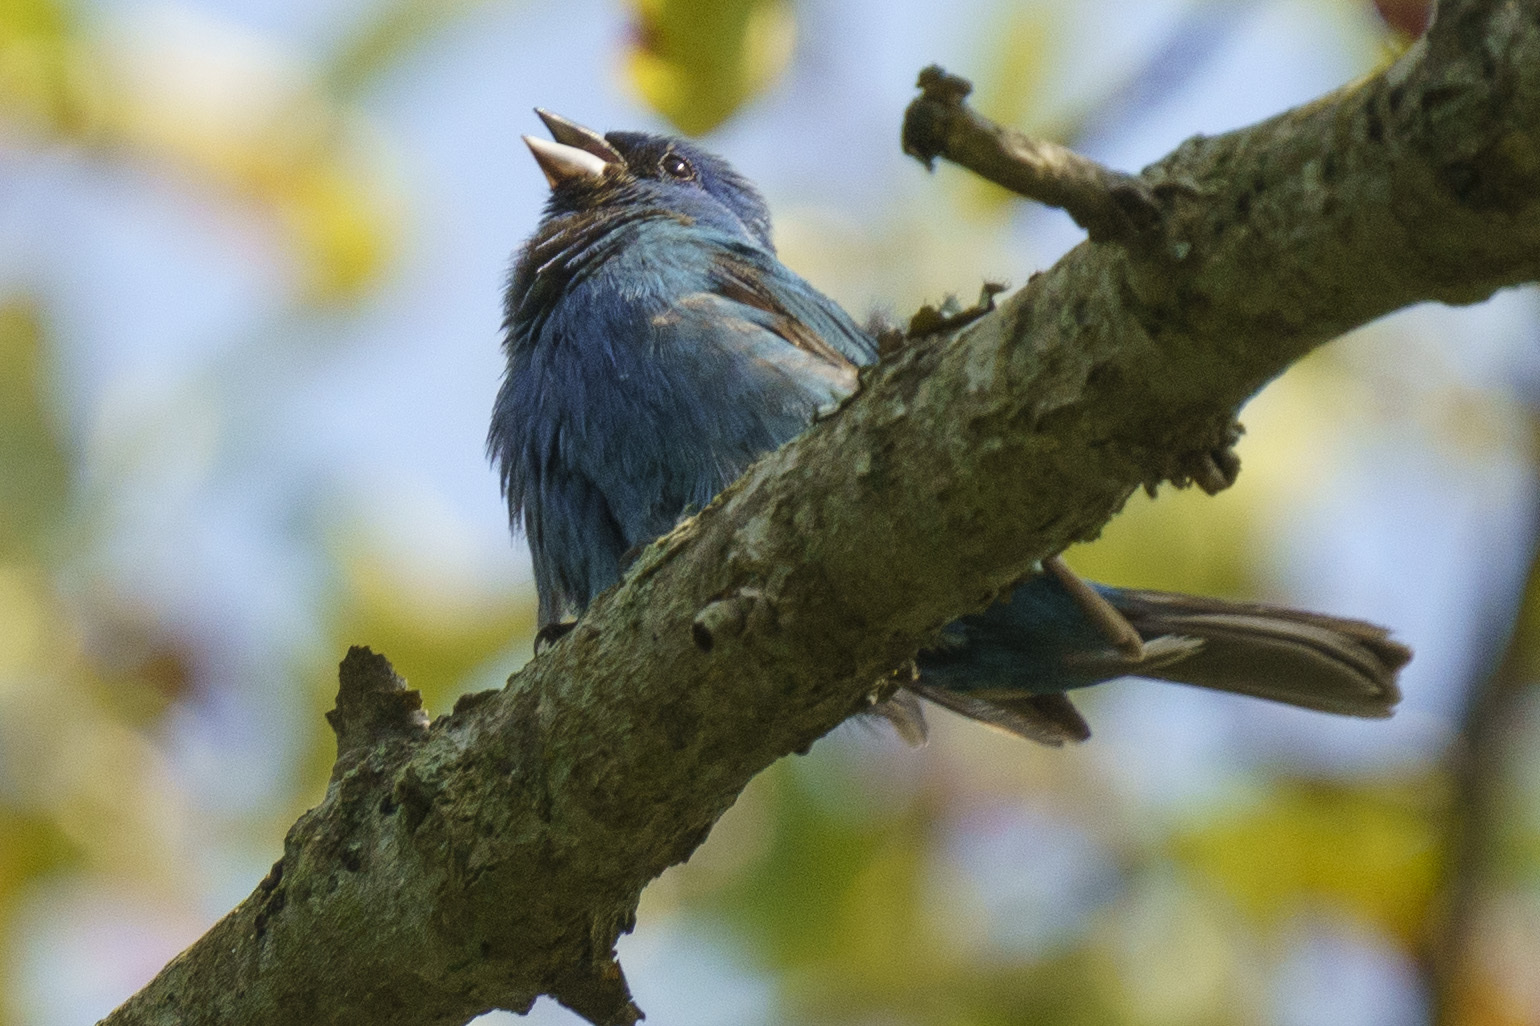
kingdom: Animalia
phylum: Chordata
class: Aves
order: Passeriformes
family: Cardinalidae
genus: Passerina
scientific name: Passerina cyanea
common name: Indigo bunting
